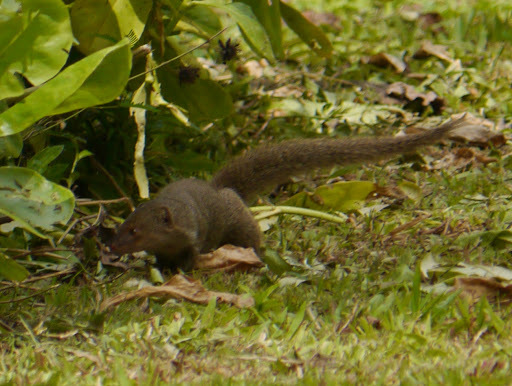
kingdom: Animalia
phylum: Chordata
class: Mammalia
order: Carnivora
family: Herpestidae
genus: Herpestes
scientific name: Herpestes javanicus
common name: Small asian mongoose
